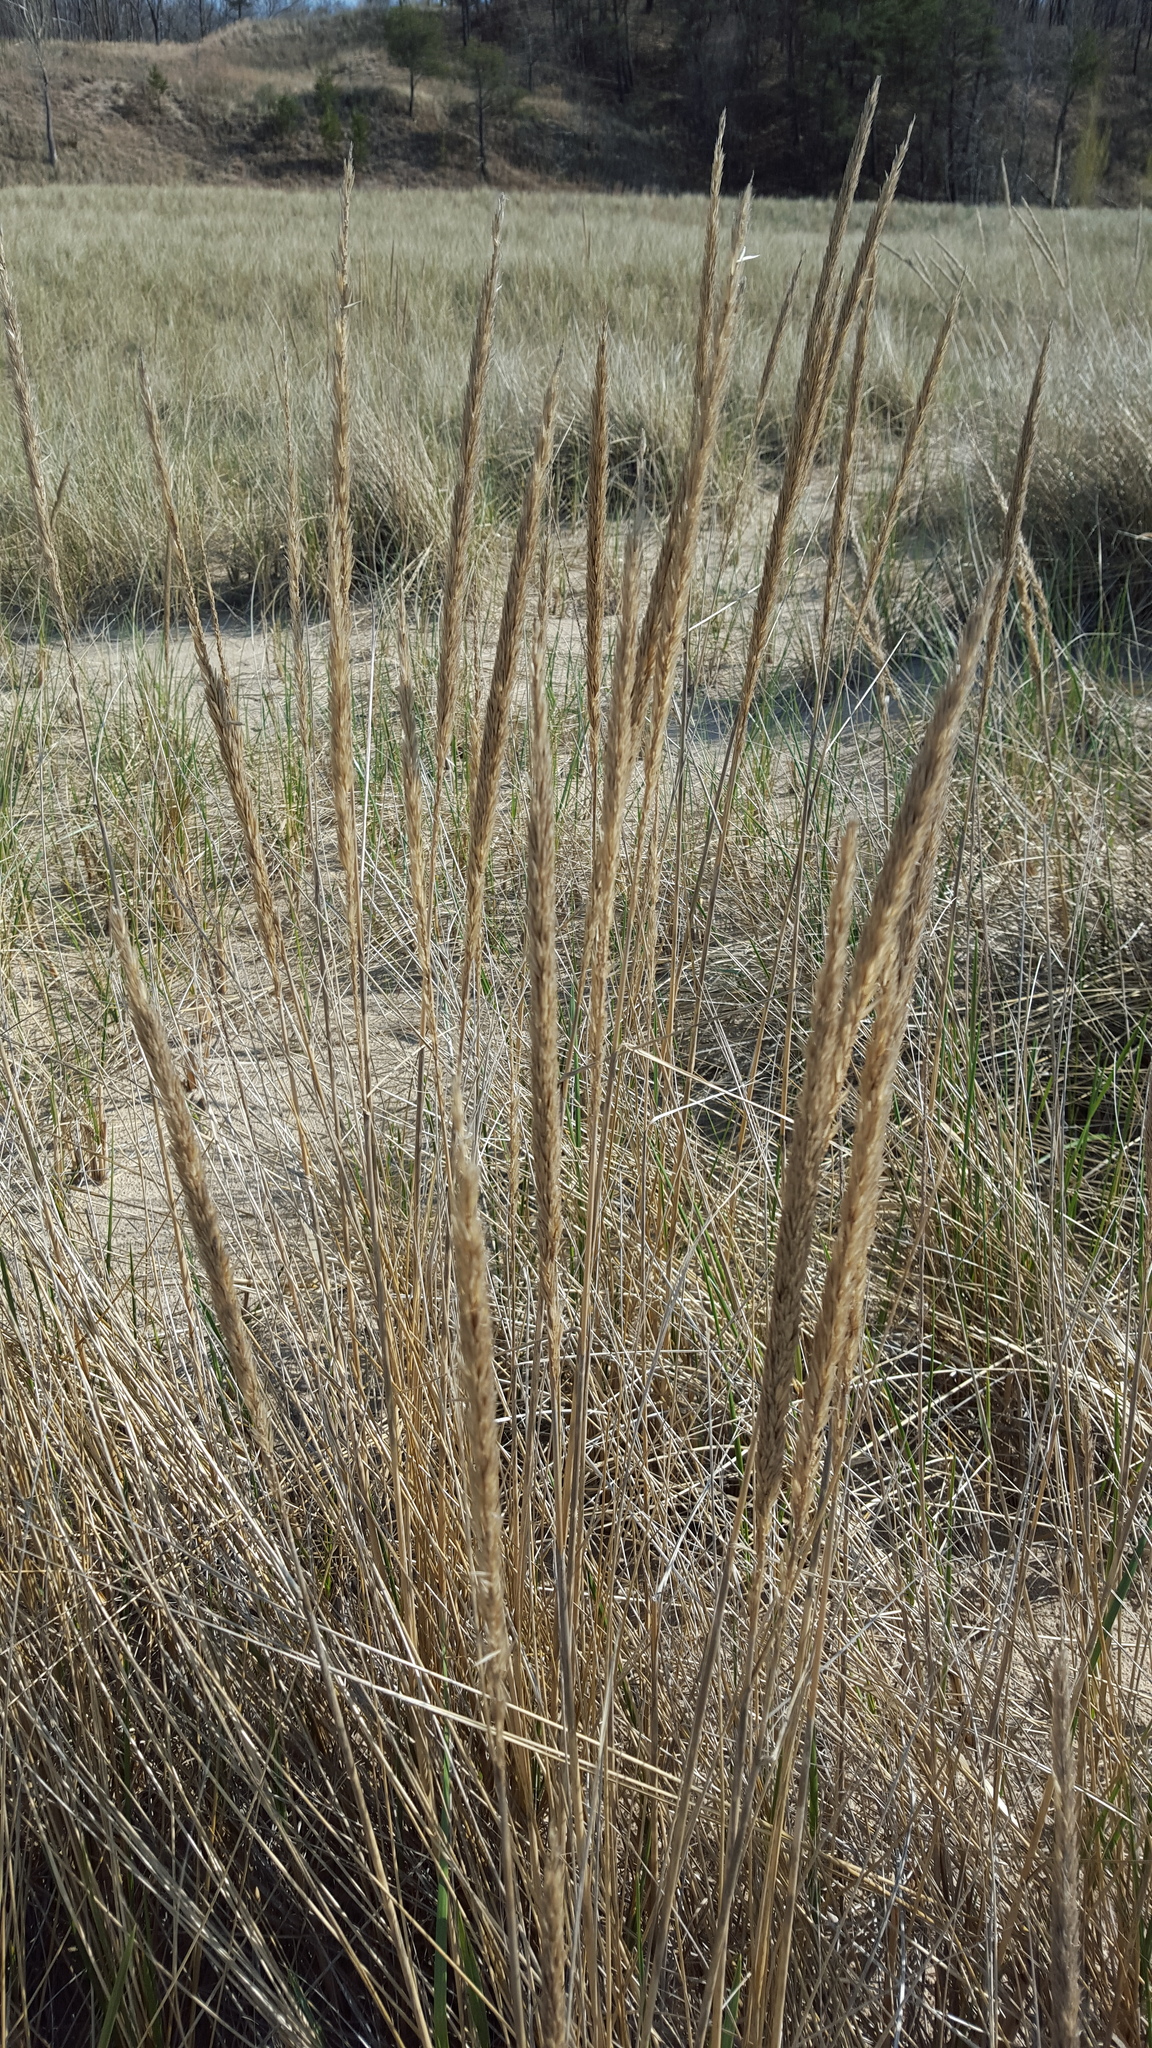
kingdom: Plantae
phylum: Tracheophyta
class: Liliopsida
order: Poales
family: Poaceae
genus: Calamagrostis
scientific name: Calamagrostis breviligulata
